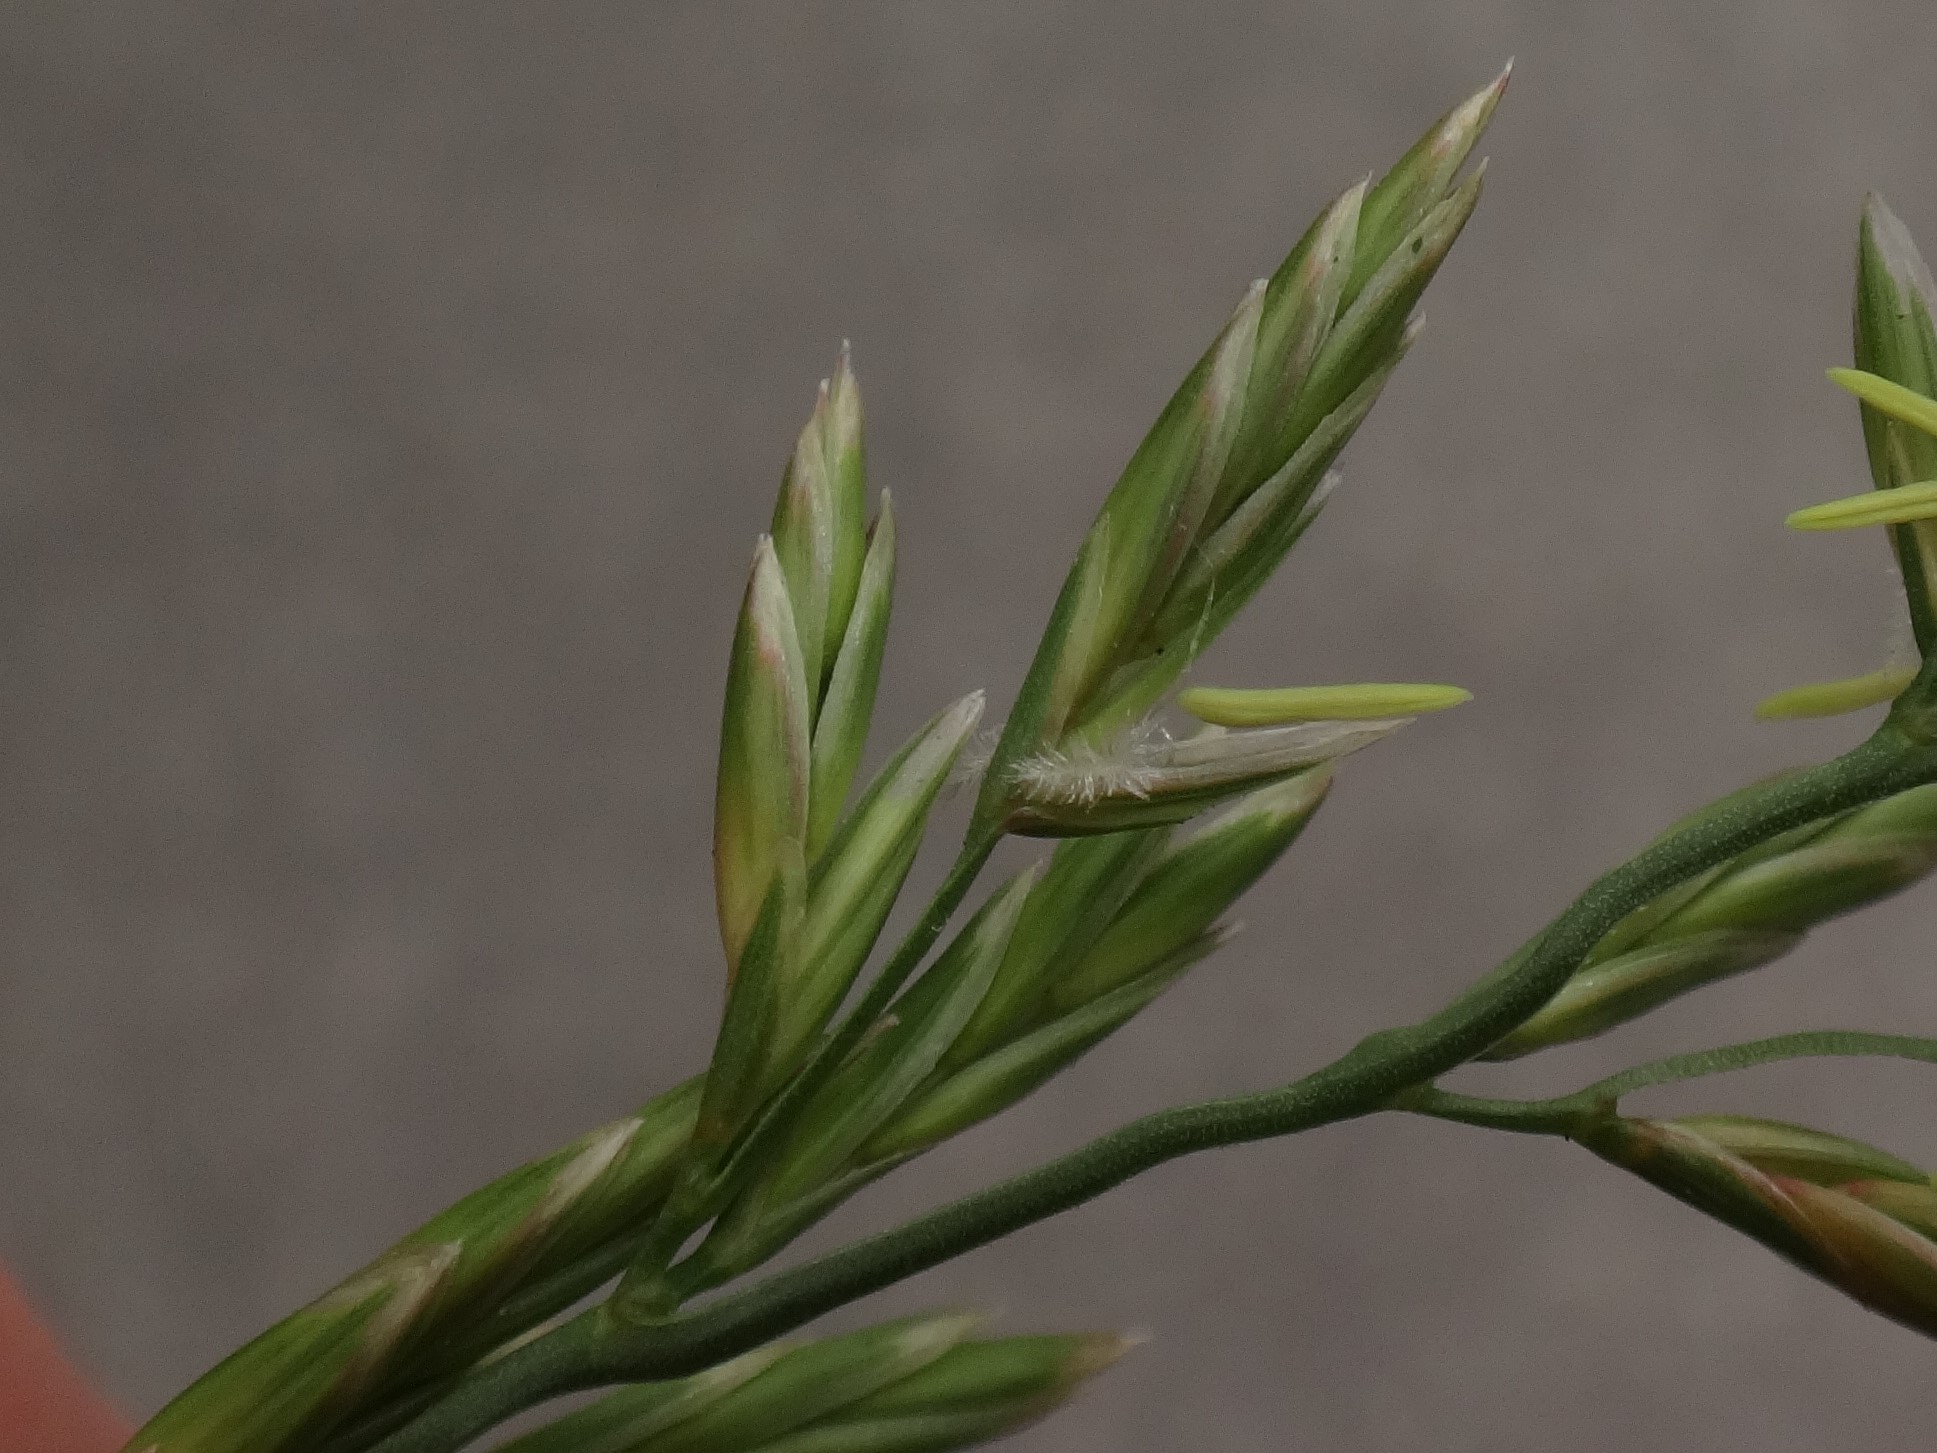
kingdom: Plantae
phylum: Tracheophyta
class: Liliopsida
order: Poales
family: Poaceae
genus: Lolium
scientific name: Lolium pratense
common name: Dover grass
